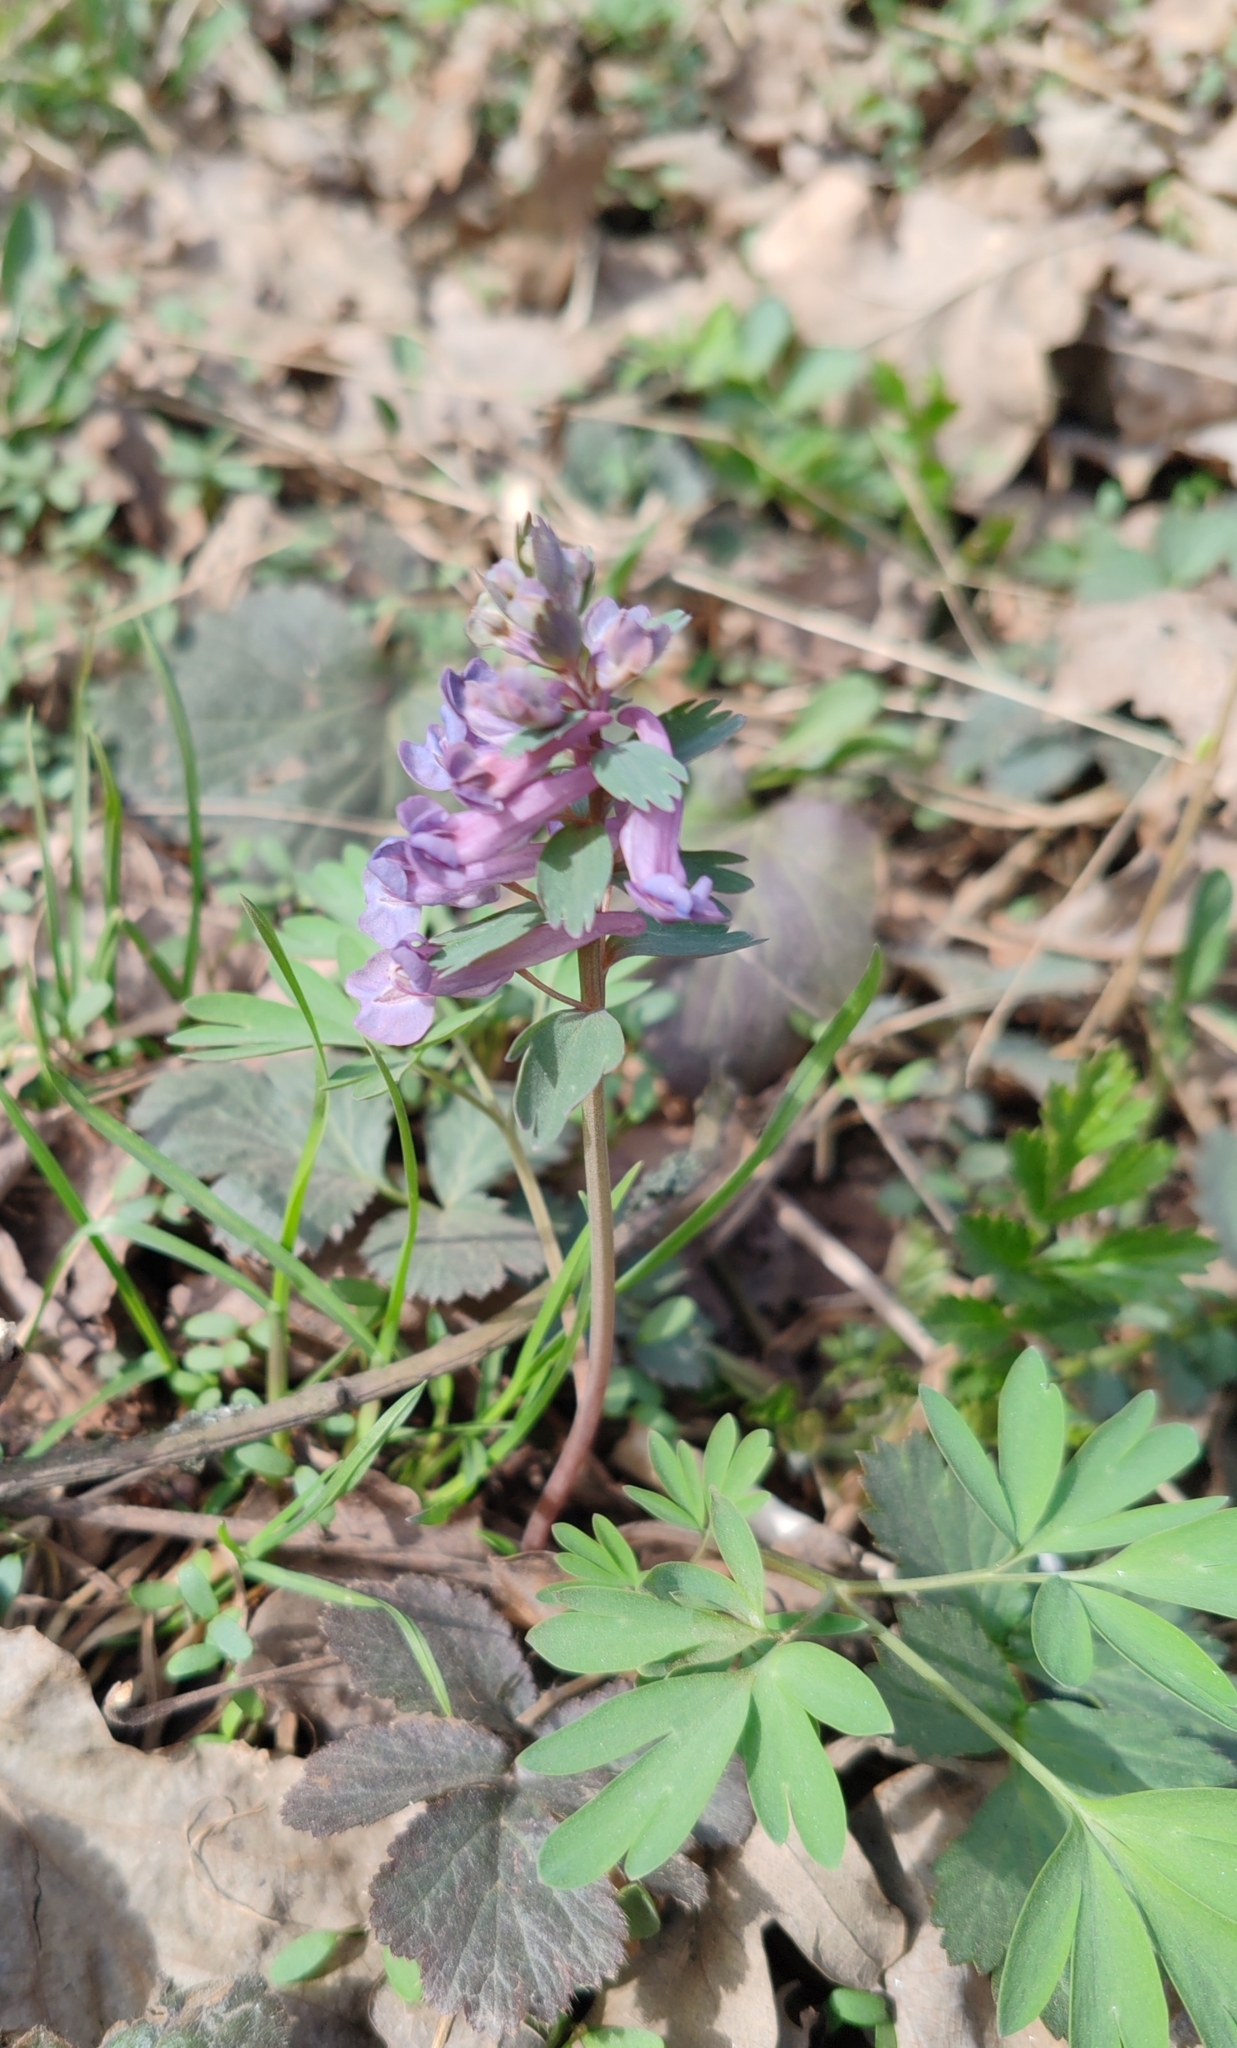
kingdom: Plantae
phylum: Tracheophyta
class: Magnoliopsida
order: Ranunculales
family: Papaveraceae
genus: Corydalis
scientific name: Corydalis solida
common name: Bird-in-a-bush
